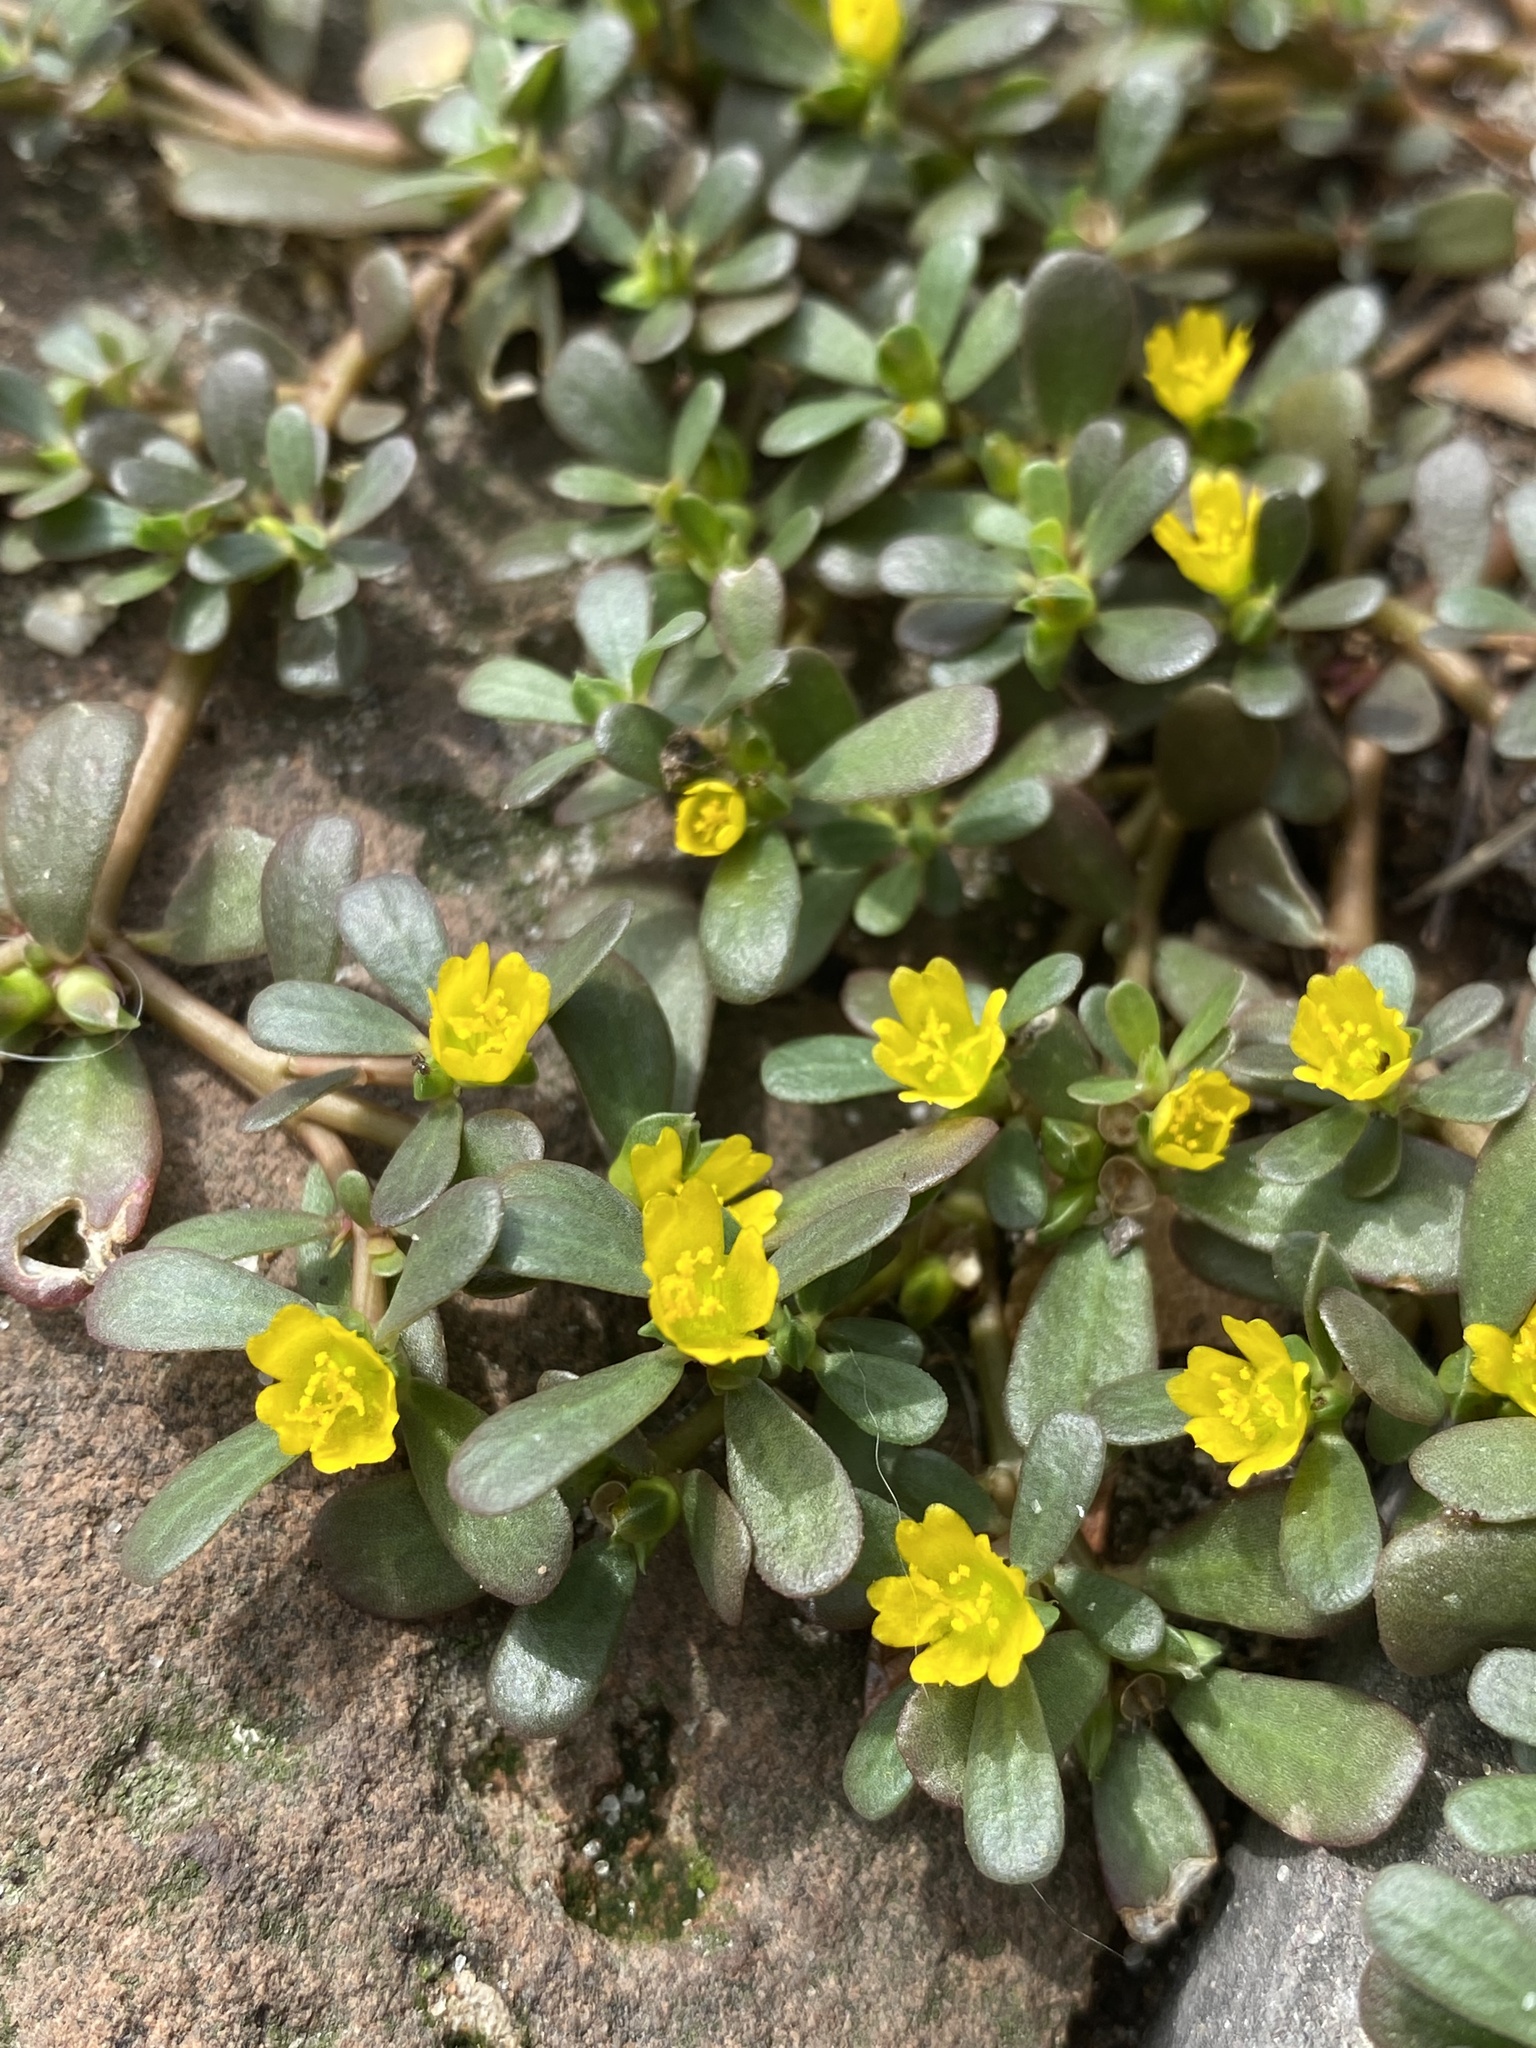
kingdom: Plantae
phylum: Tracheophyta
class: Magnoliopsida
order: Caryophyllales
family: Portulacaceae
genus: Portulaca
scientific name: Portulaca oleracea
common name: Common purslane
